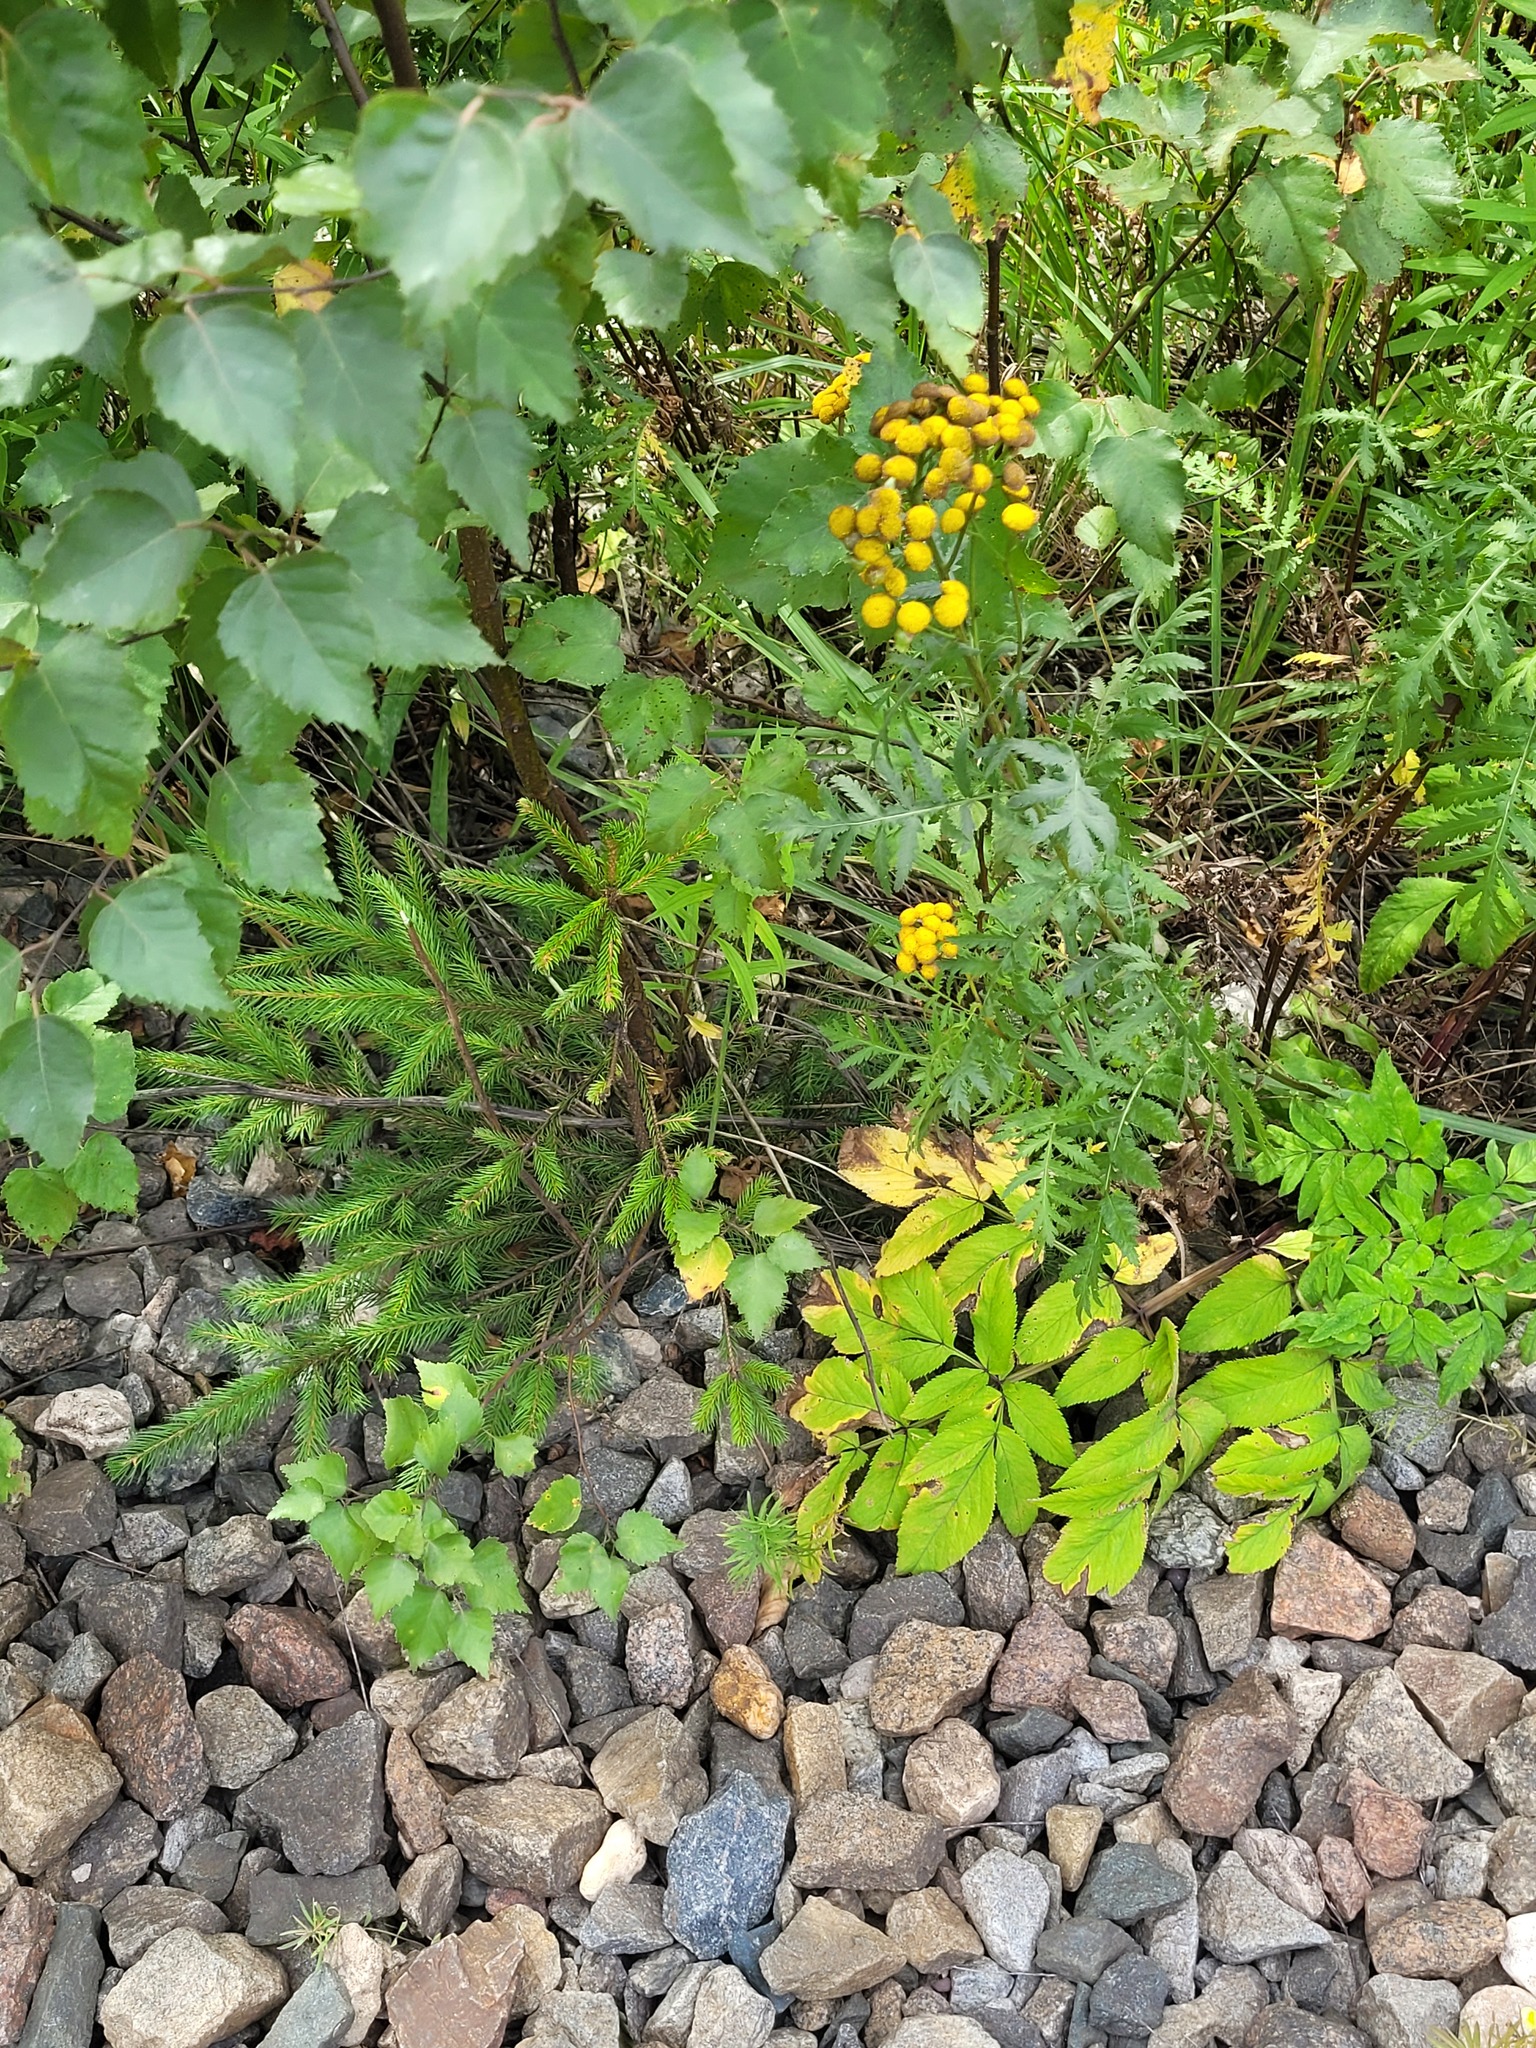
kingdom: Plantae
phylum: Tracheophyta
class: Pinopsida
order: Pinales
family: Pinaceae
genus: Picea
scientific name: Picea abies
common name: Norway spruce
